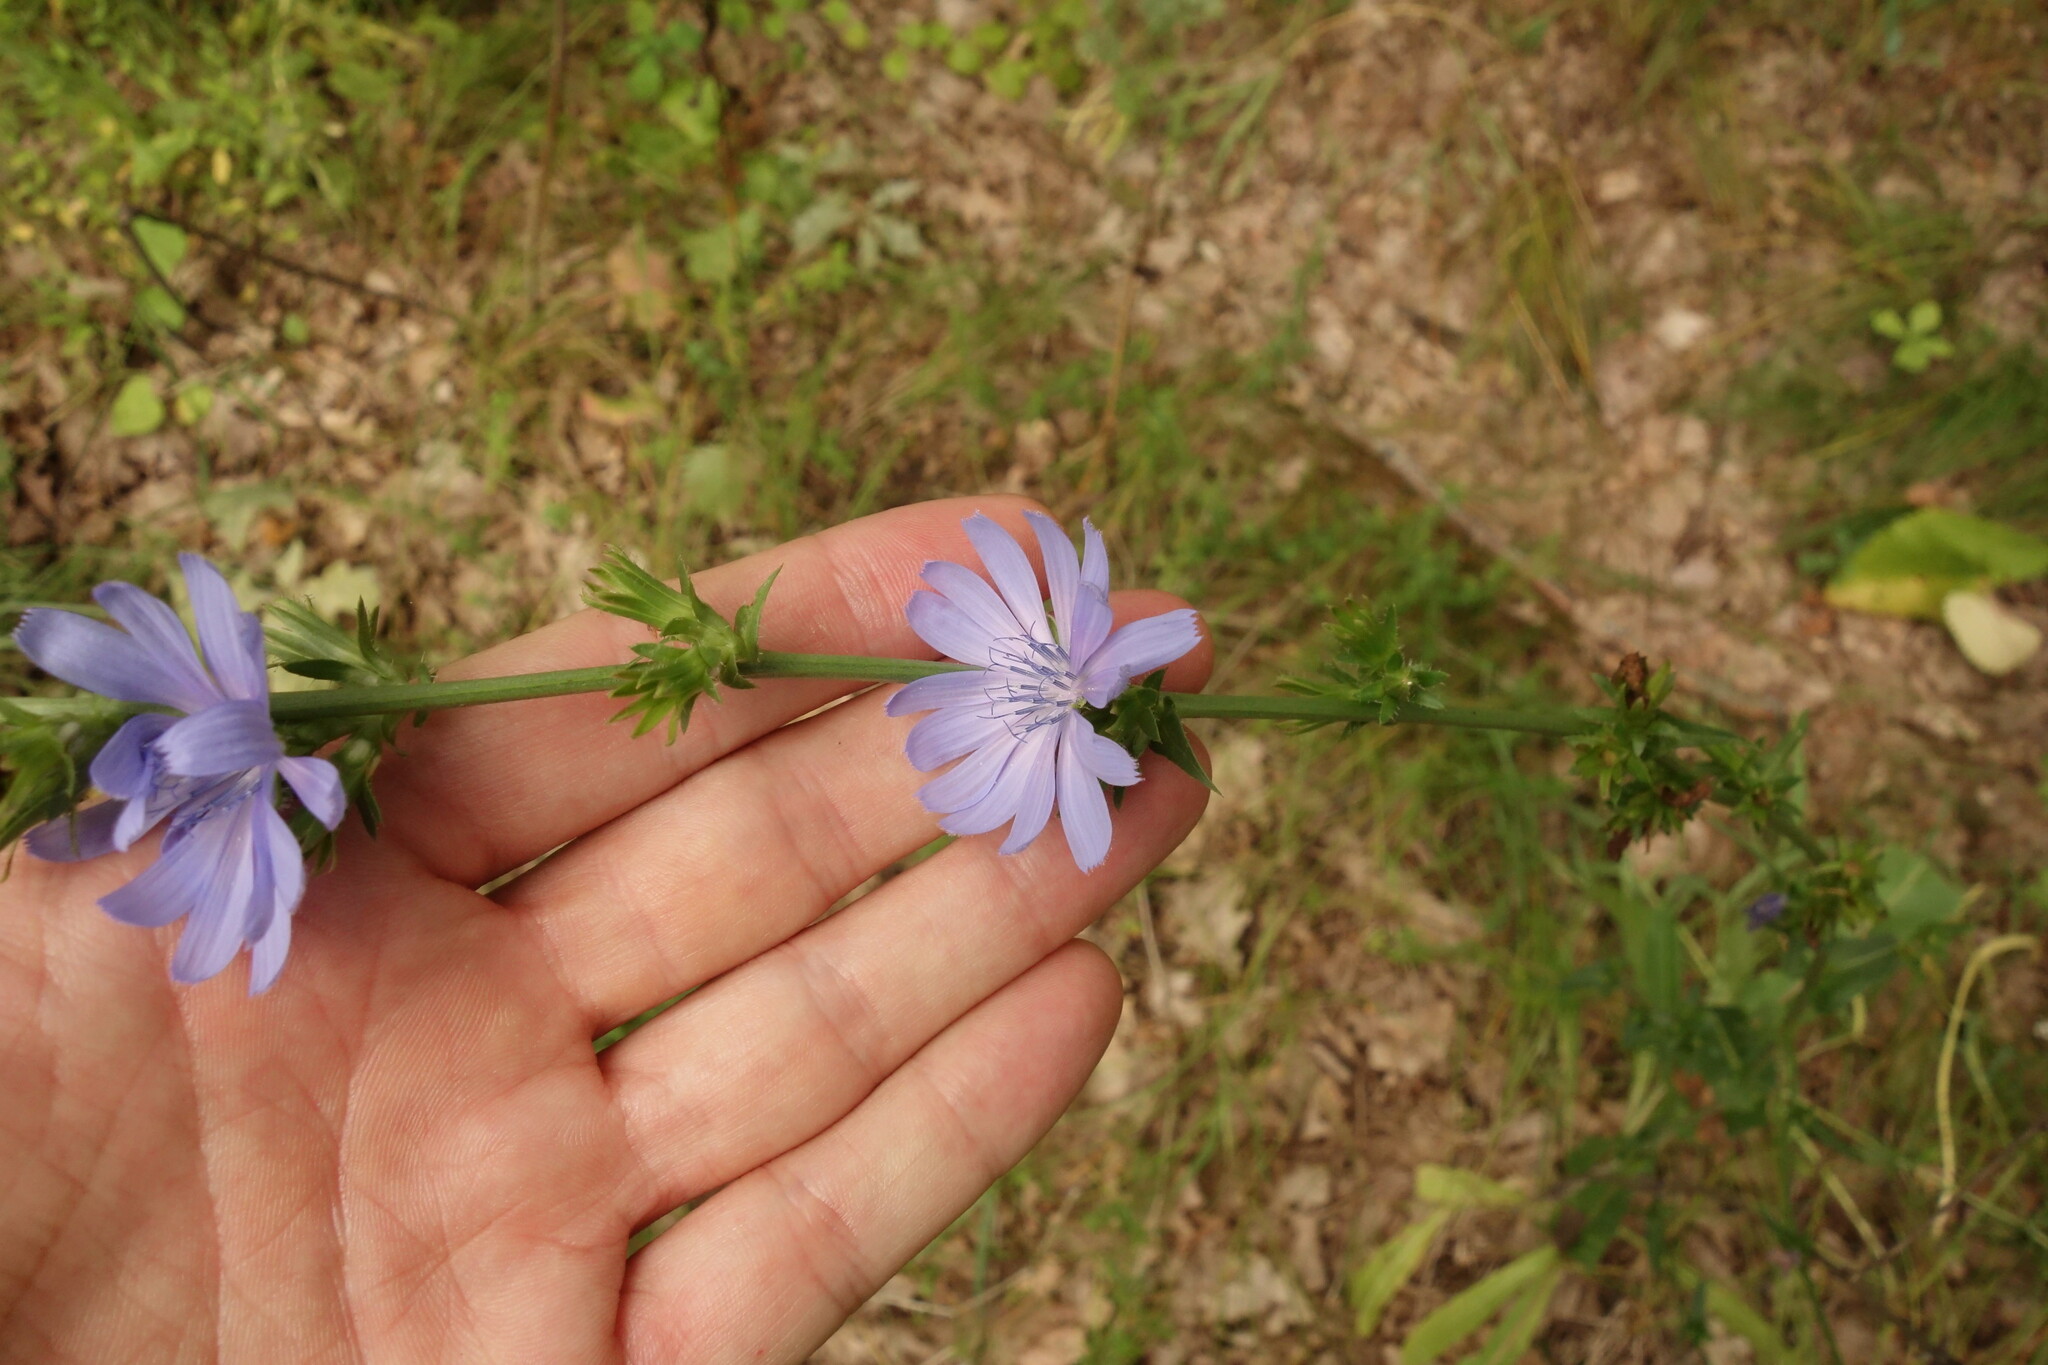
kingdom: Plantae
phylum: Tracheophyta
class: Magnoliopsida
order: Asterales
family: Asteraceae
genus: Cichorium
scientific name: Cichorium intybus
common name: Chicory
